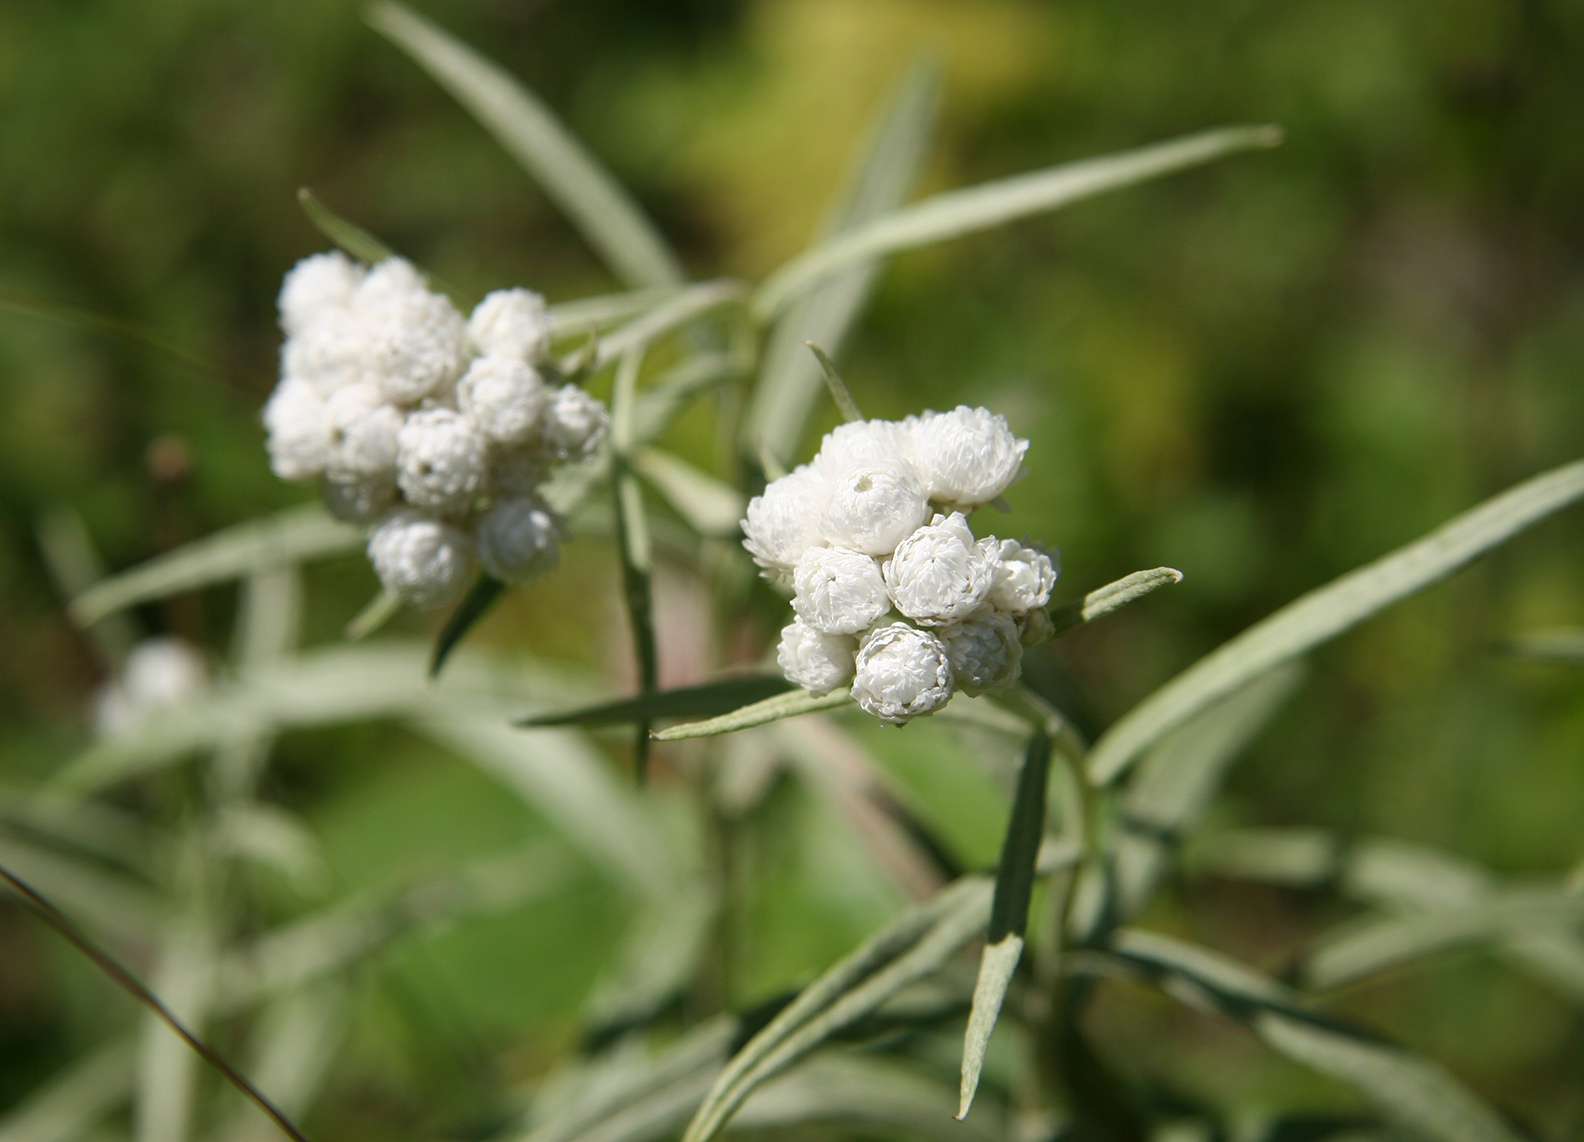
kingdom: Plantae
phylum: Tracheophyta
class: Magnoliopsida
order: Asterales
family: Asteraceae
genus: Anaphalis
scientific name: Anaphalis margaritacea
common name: Pearly everlasting
